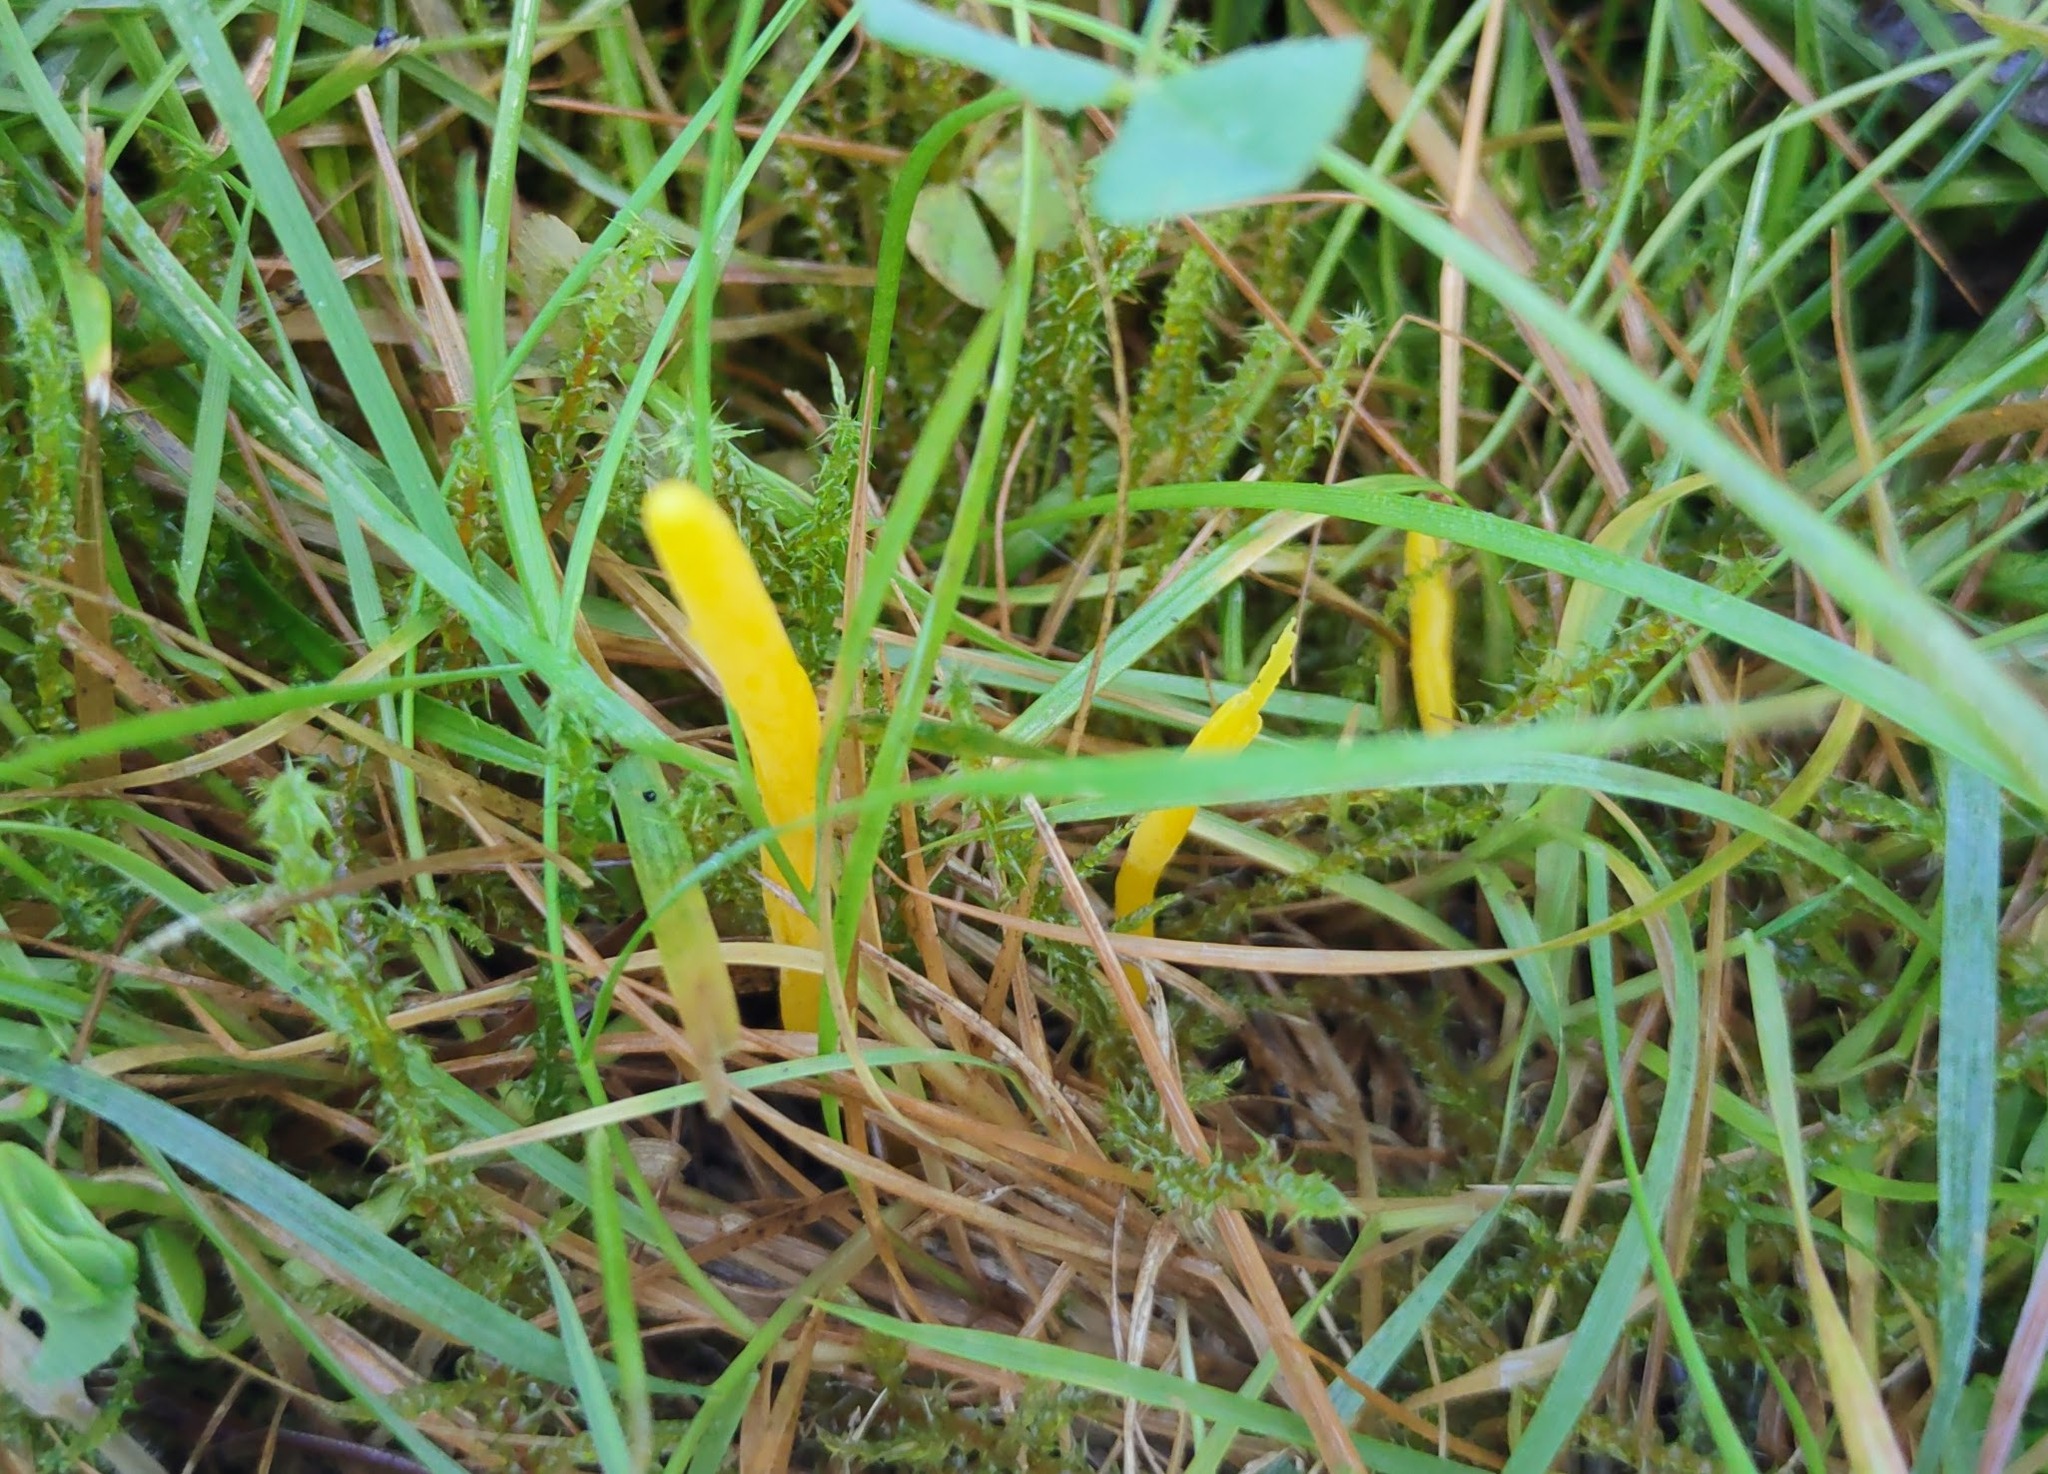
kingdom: Fungi
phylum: Basidiomycota
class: Agaricomycetes
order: Agaricales
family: Clavariaceae
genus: Clavulinopsis
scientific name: Clavulinopsis helvola
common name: Yellow club
